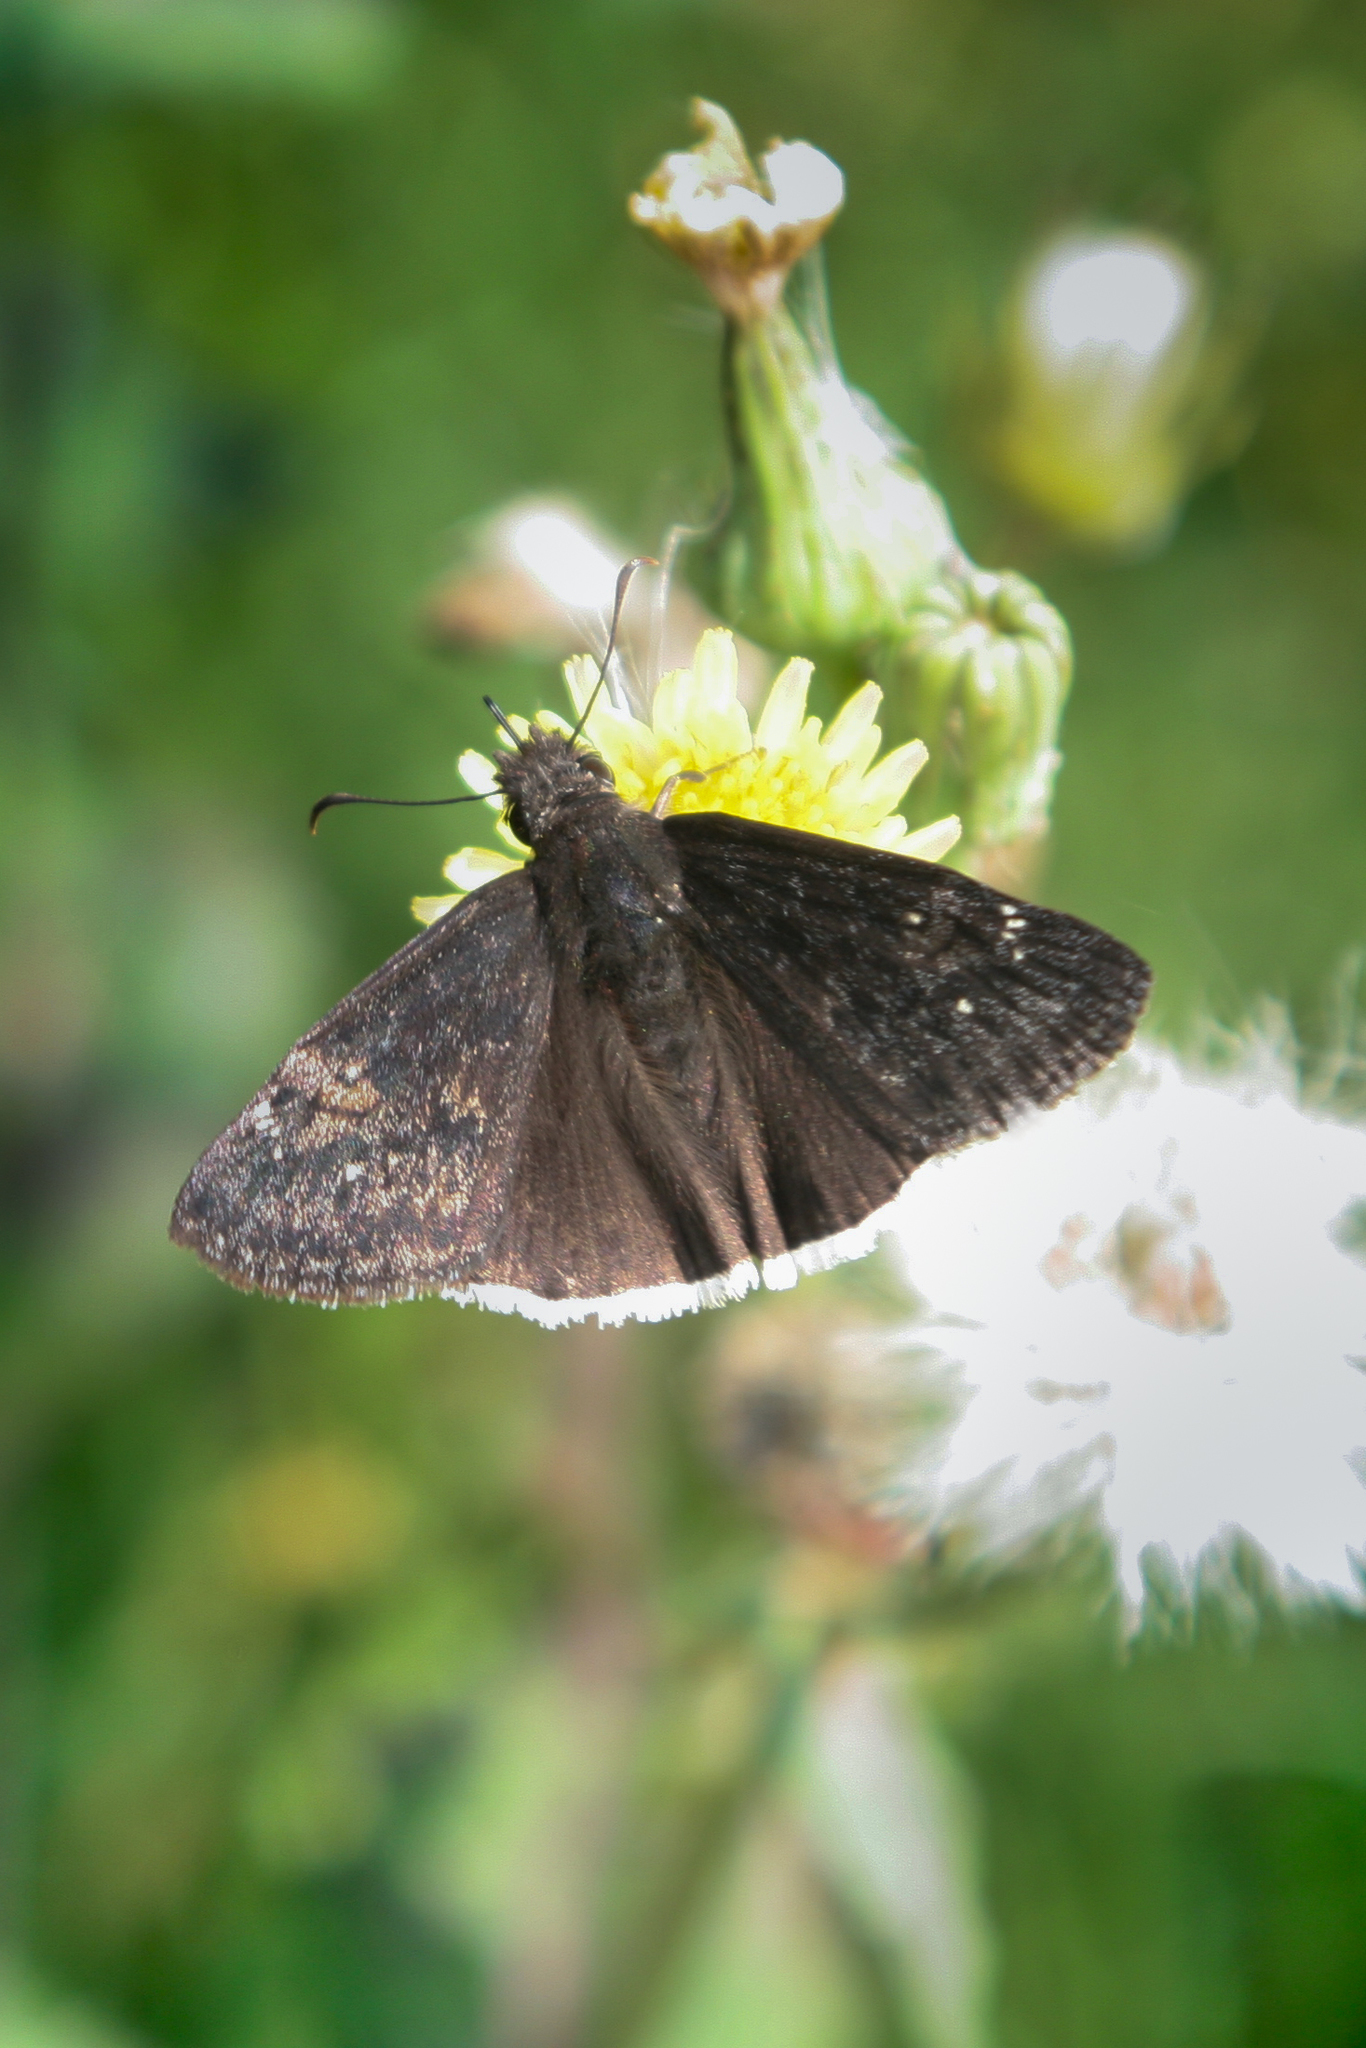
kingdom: Animalia
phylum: Arthropoda
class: Insecta
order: Lepidoptera
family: Hesperiidae
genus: Erynnis
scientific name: Erynnis funeralis
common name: Funereal duskywing
